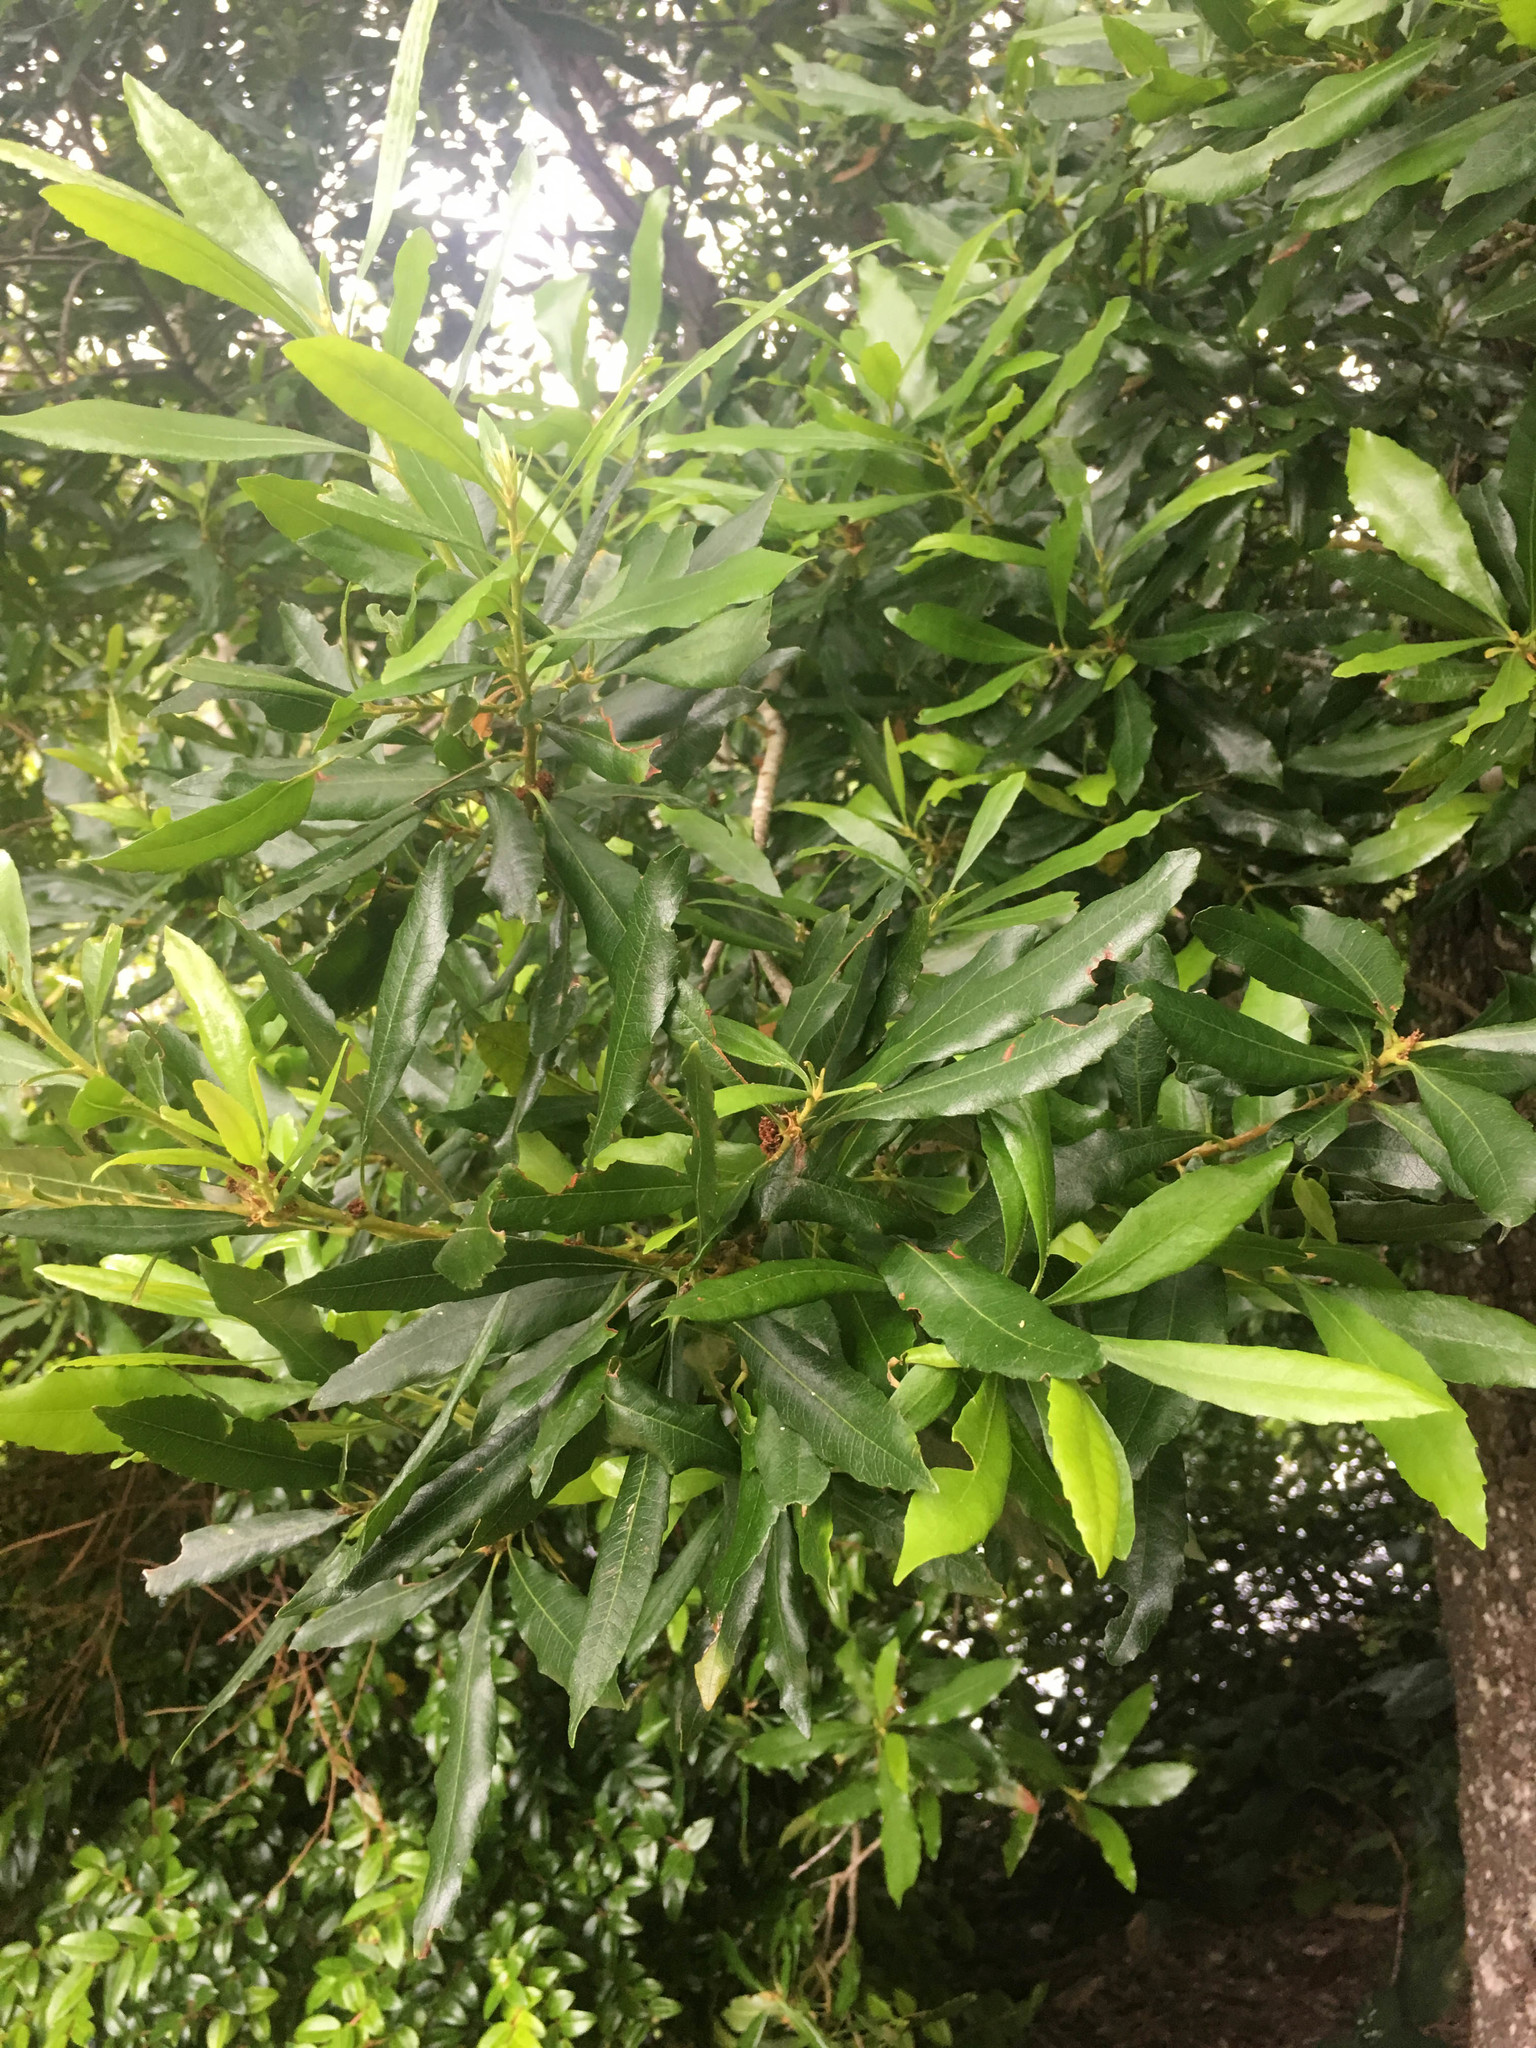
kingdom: Plantae
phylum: Tracheophyta
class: Magnoliopsida
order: Fagales
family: Myricaceae
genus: Morella
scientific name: Morella californica
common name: California wax-myrtle
